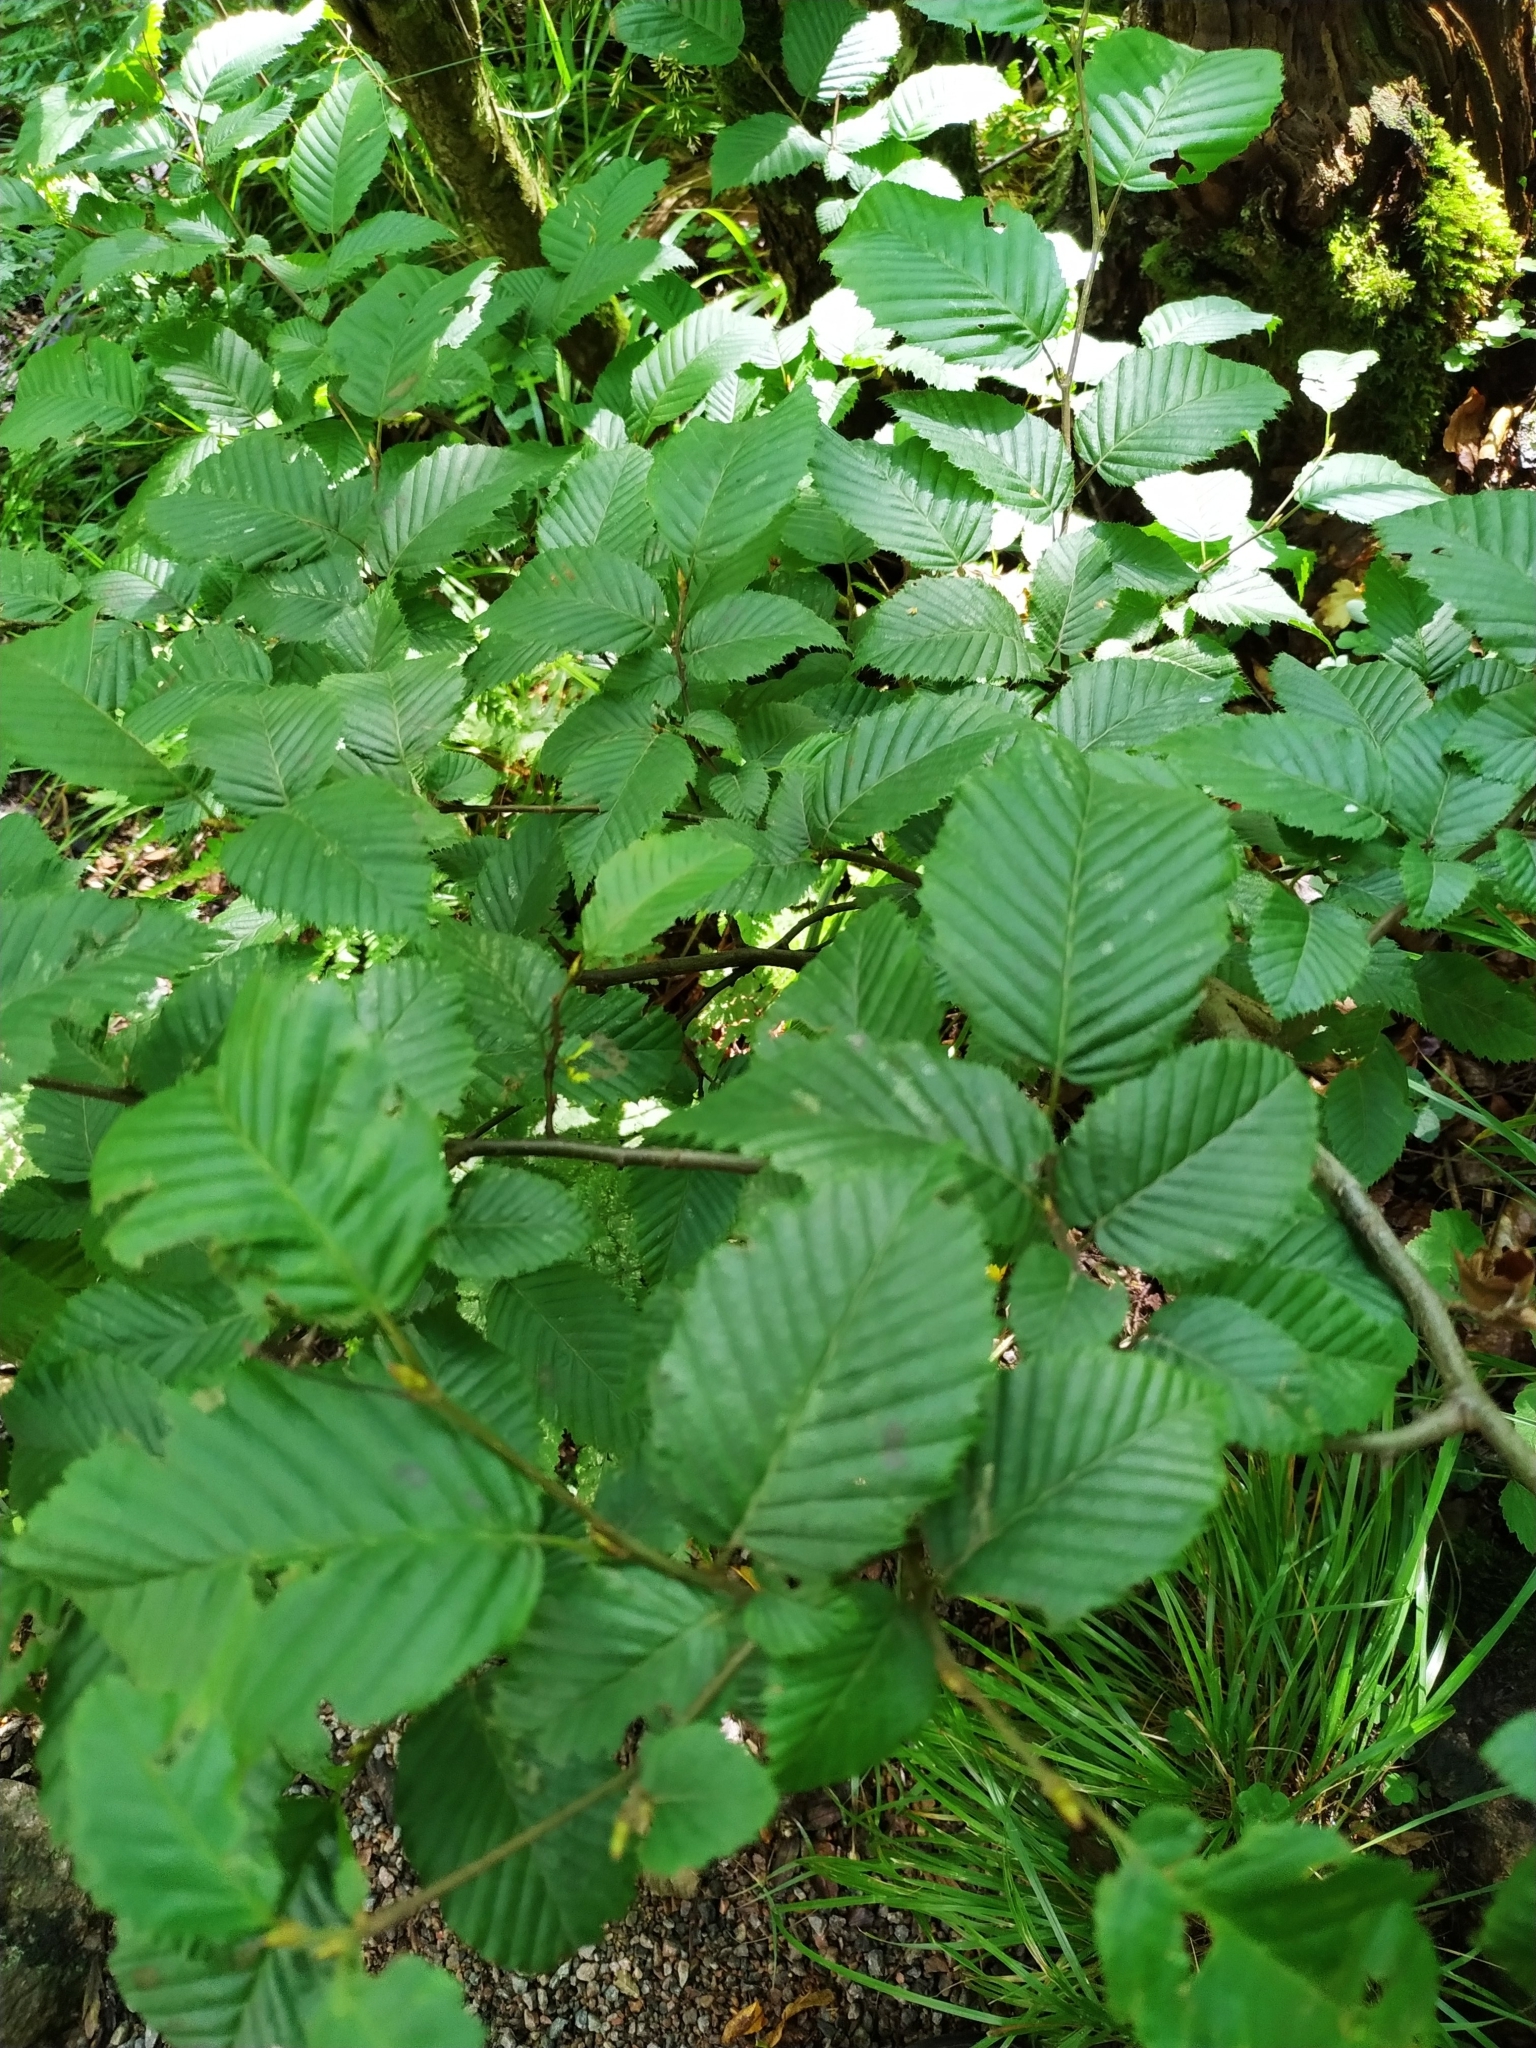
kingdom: Plantae
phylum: Tracheophyta
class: Magnoliopsida
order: Fagales
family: Betulaceae
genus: Carpinus
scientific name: Carpinus betulus
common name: Hornbeam
